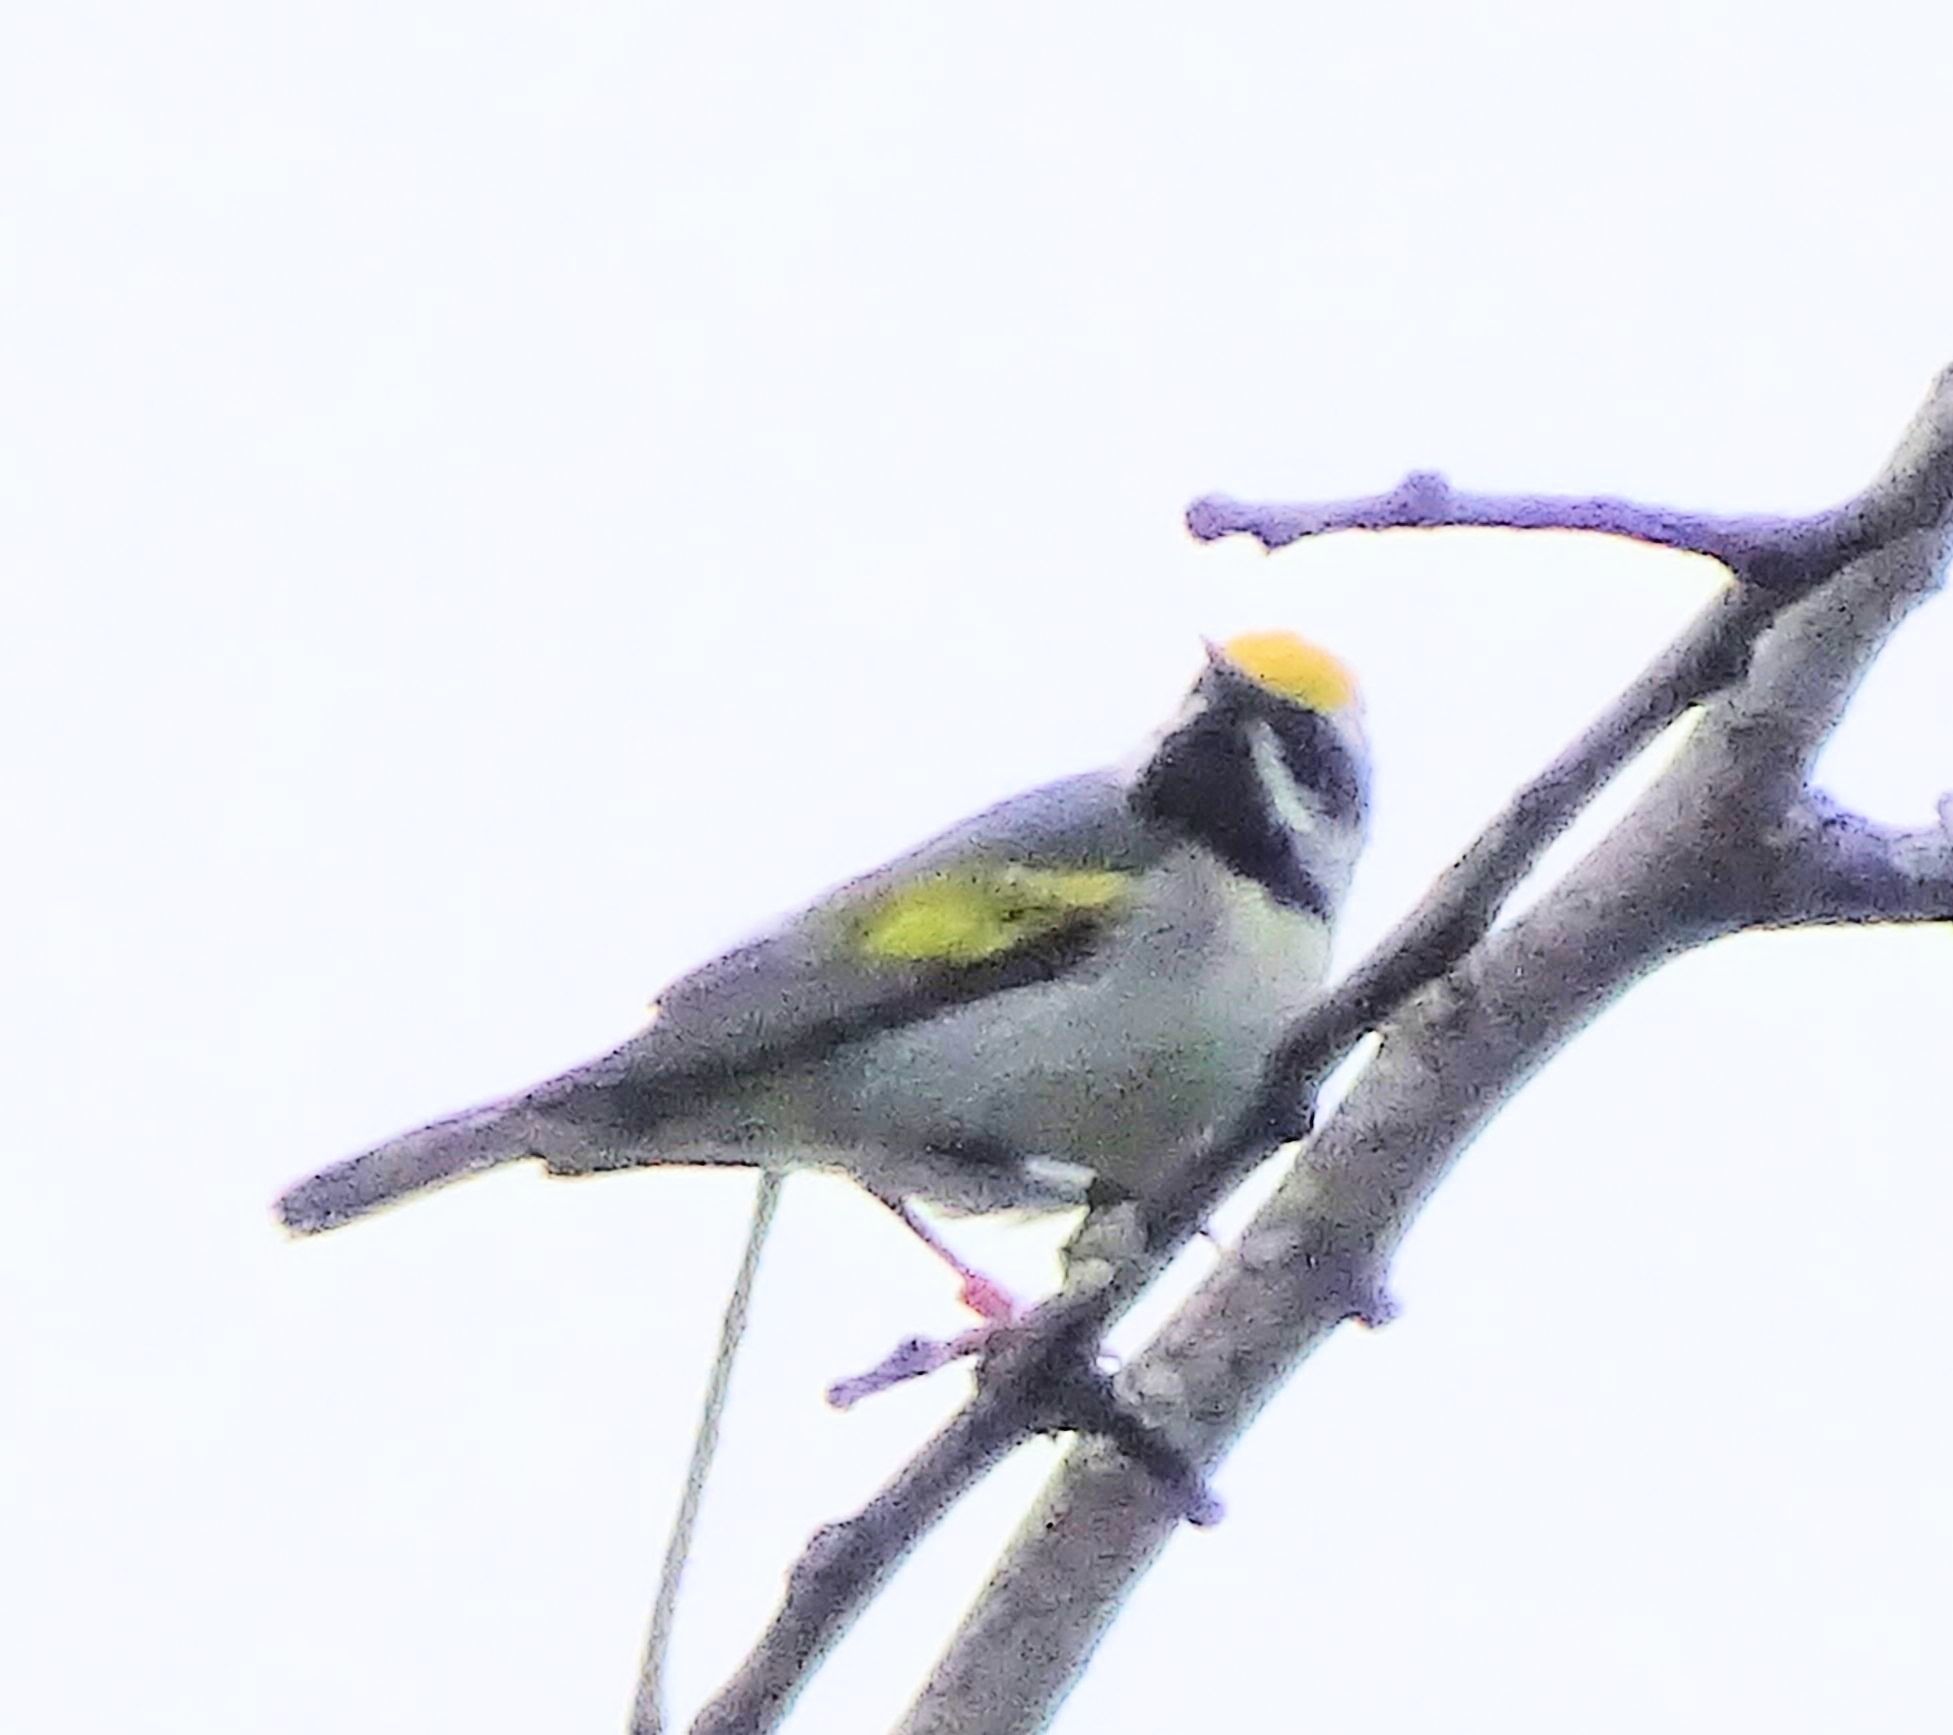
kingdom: Animalia
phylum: Chordata
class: Aves
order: Passeriformes
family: Parulidae
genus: Vermivora
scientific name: Vermivora chrysoptera
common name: Golden-winged warbler
